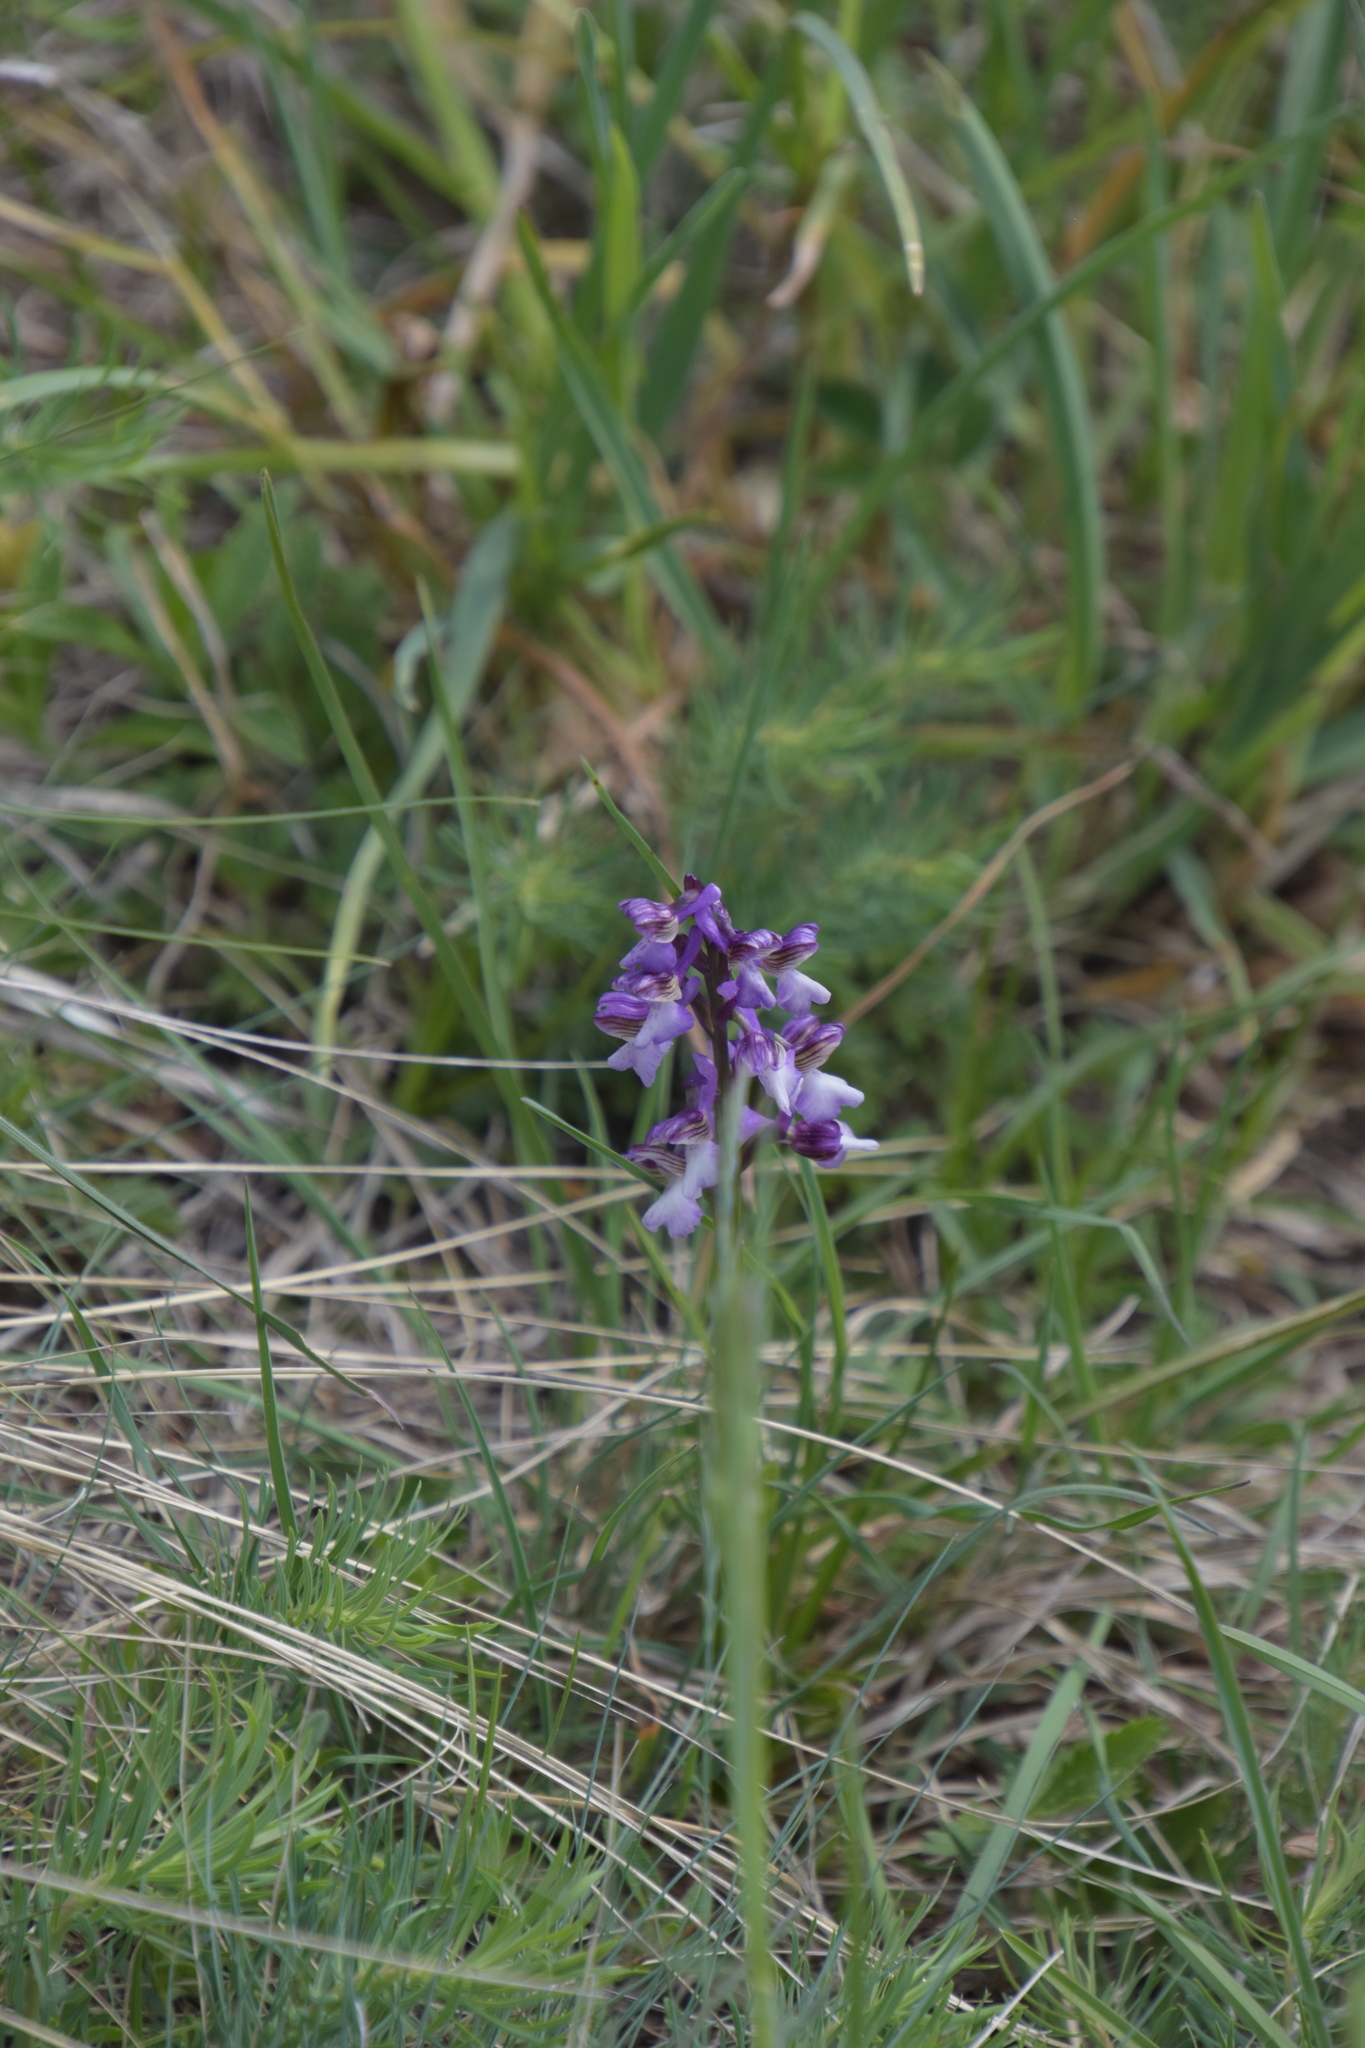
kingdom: Plantae
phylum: Tracheophyta
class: Liliopsida
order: Asparagales
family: Orchidaceae
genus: Anacamptis
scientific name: Anacamptis morio
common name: Green-winged orchid
